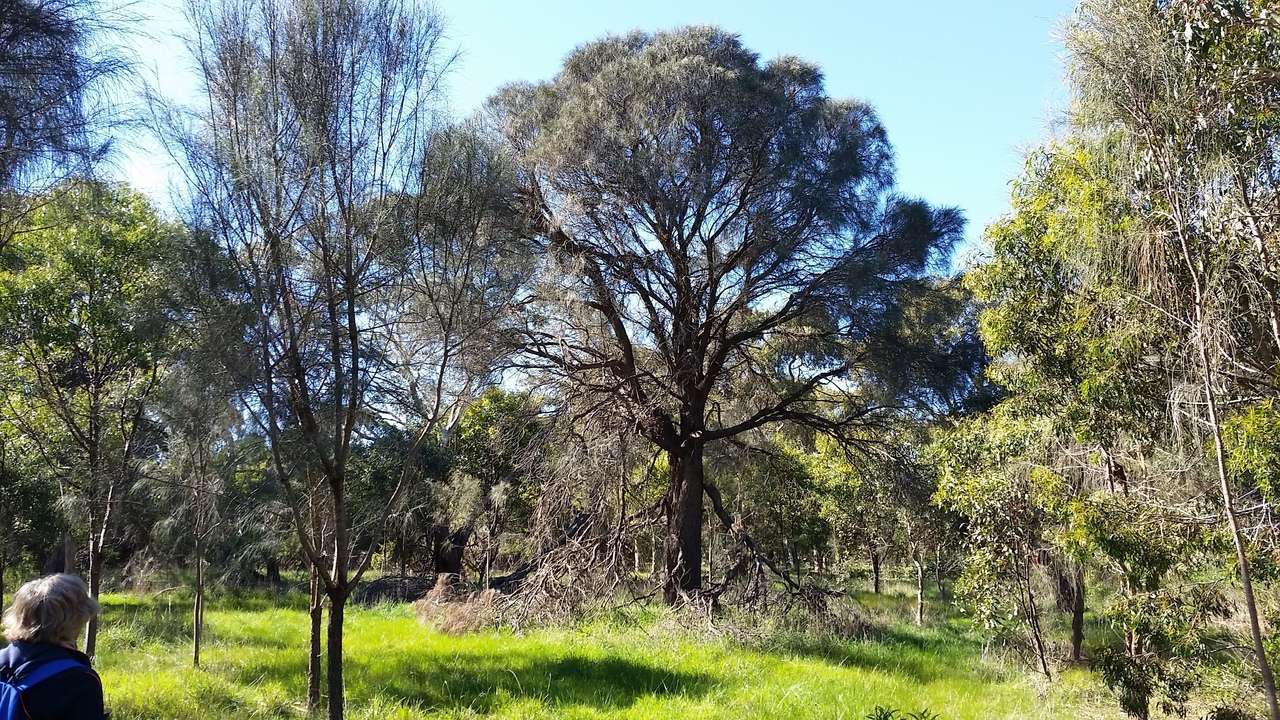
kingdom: Plantae
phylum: Tracheophyta
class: Magnoliopsida
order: Fagales
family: Casuarinaceae
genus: Allocasuarina
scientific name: Allocasuarina verticillata
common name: Drooping she-oak
